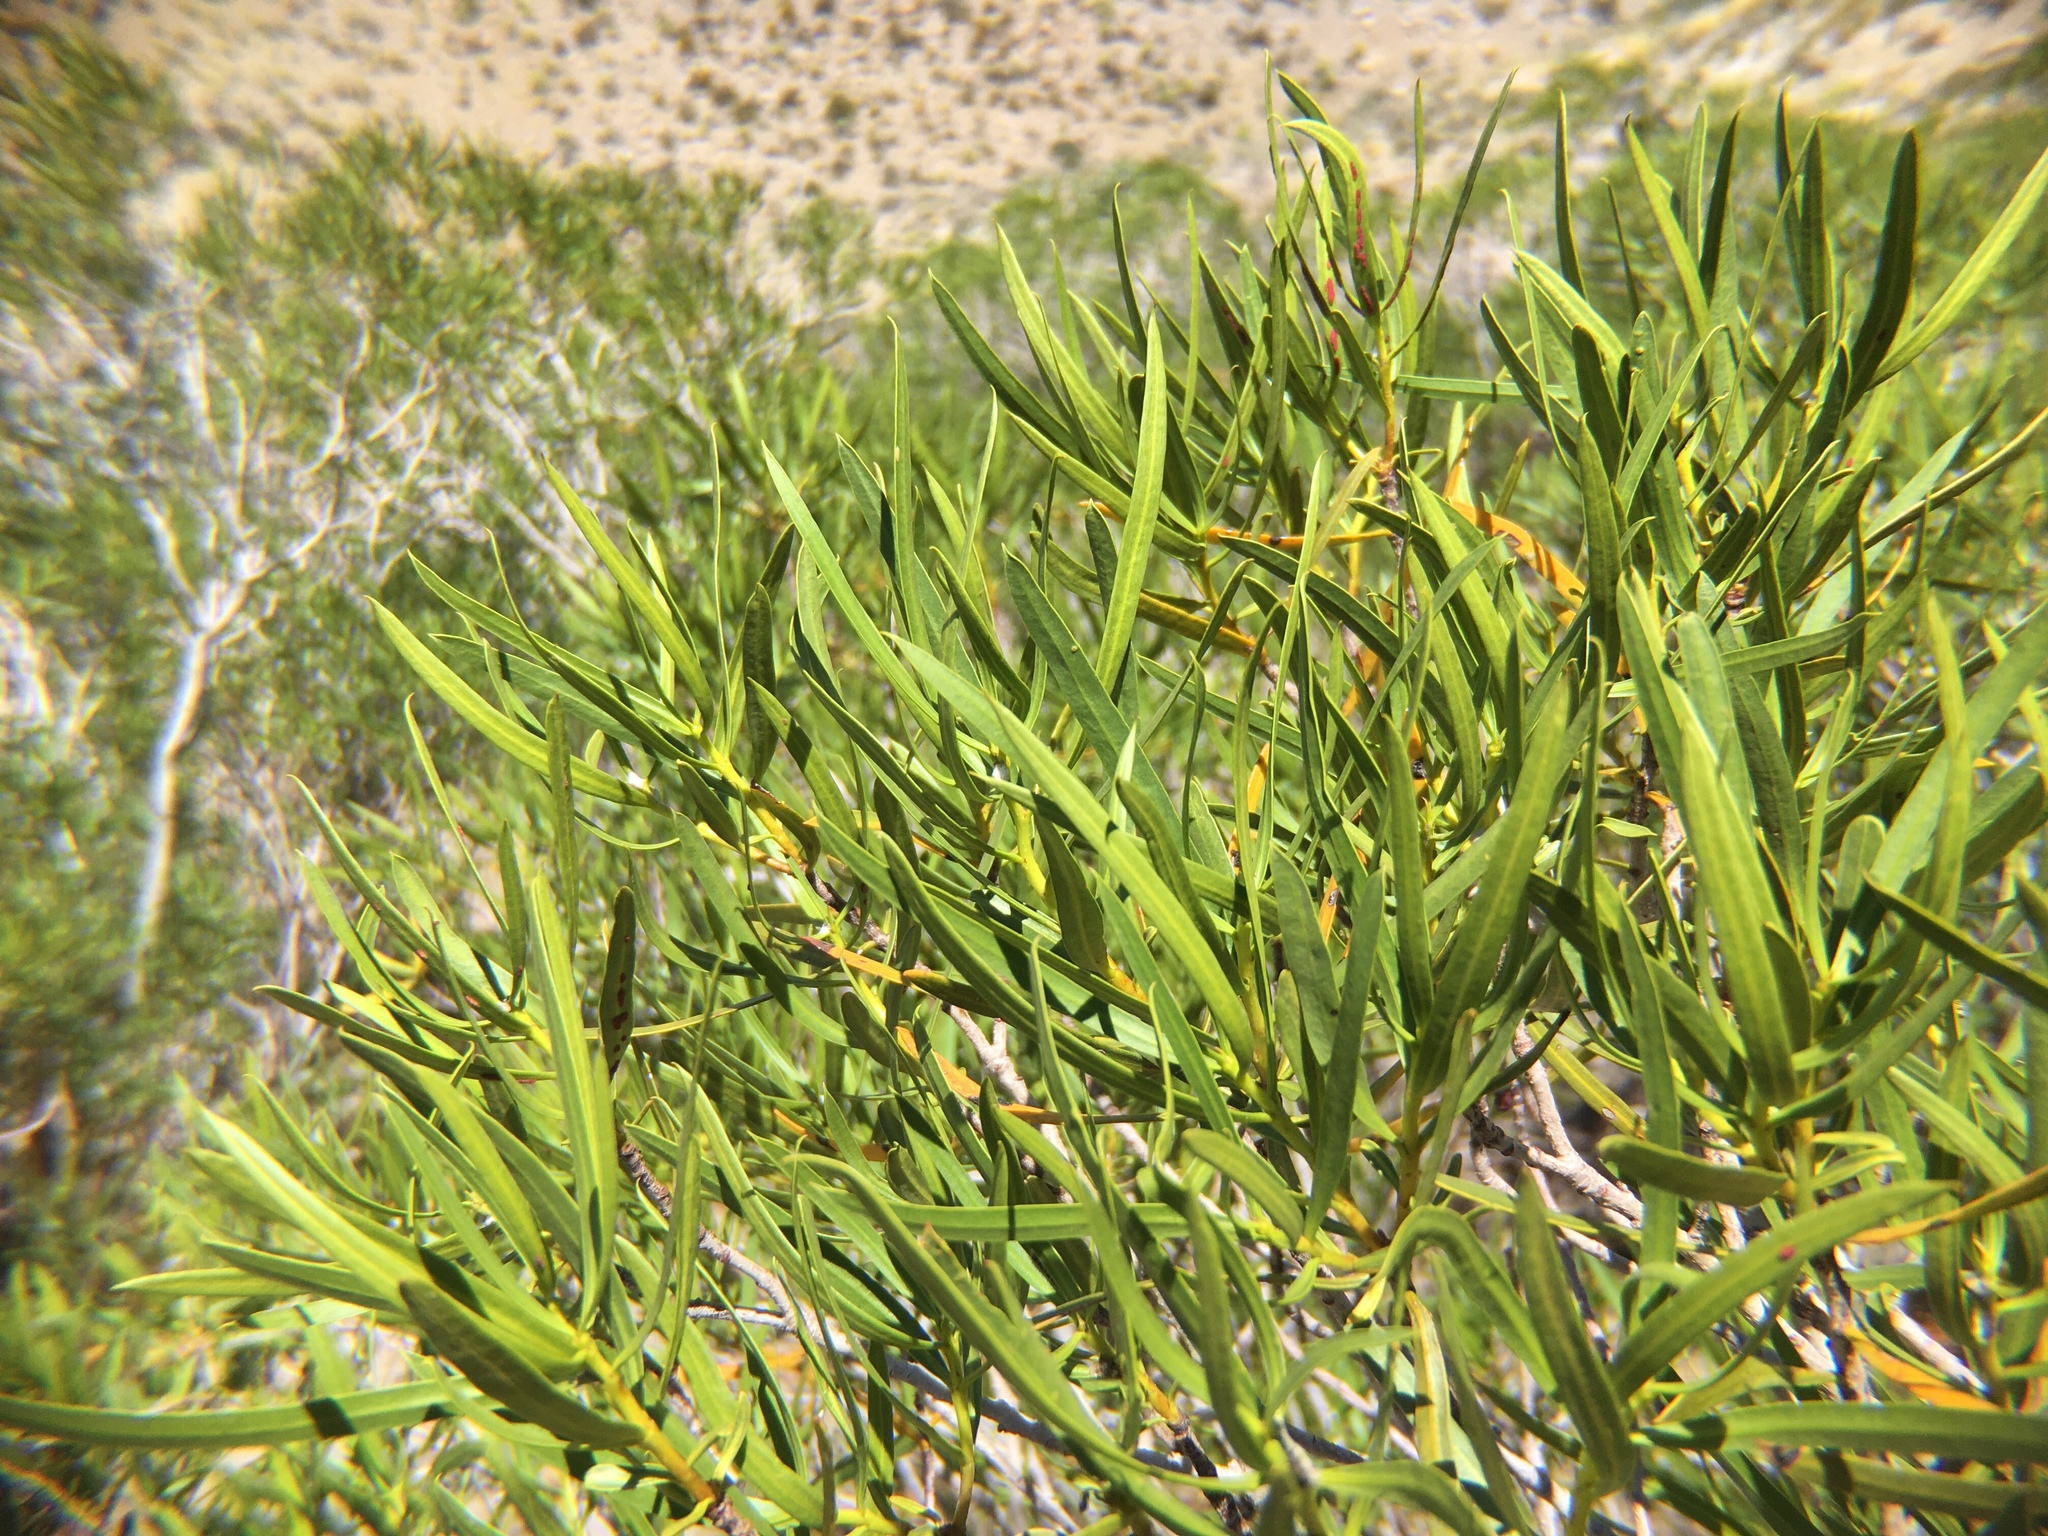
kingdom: Plantae
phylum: Tracheophyta
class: Magnoliopsida
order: Malpighiales
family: Euphorbiaceae
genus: Colliguaja
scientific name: Colliguaja integerrima
